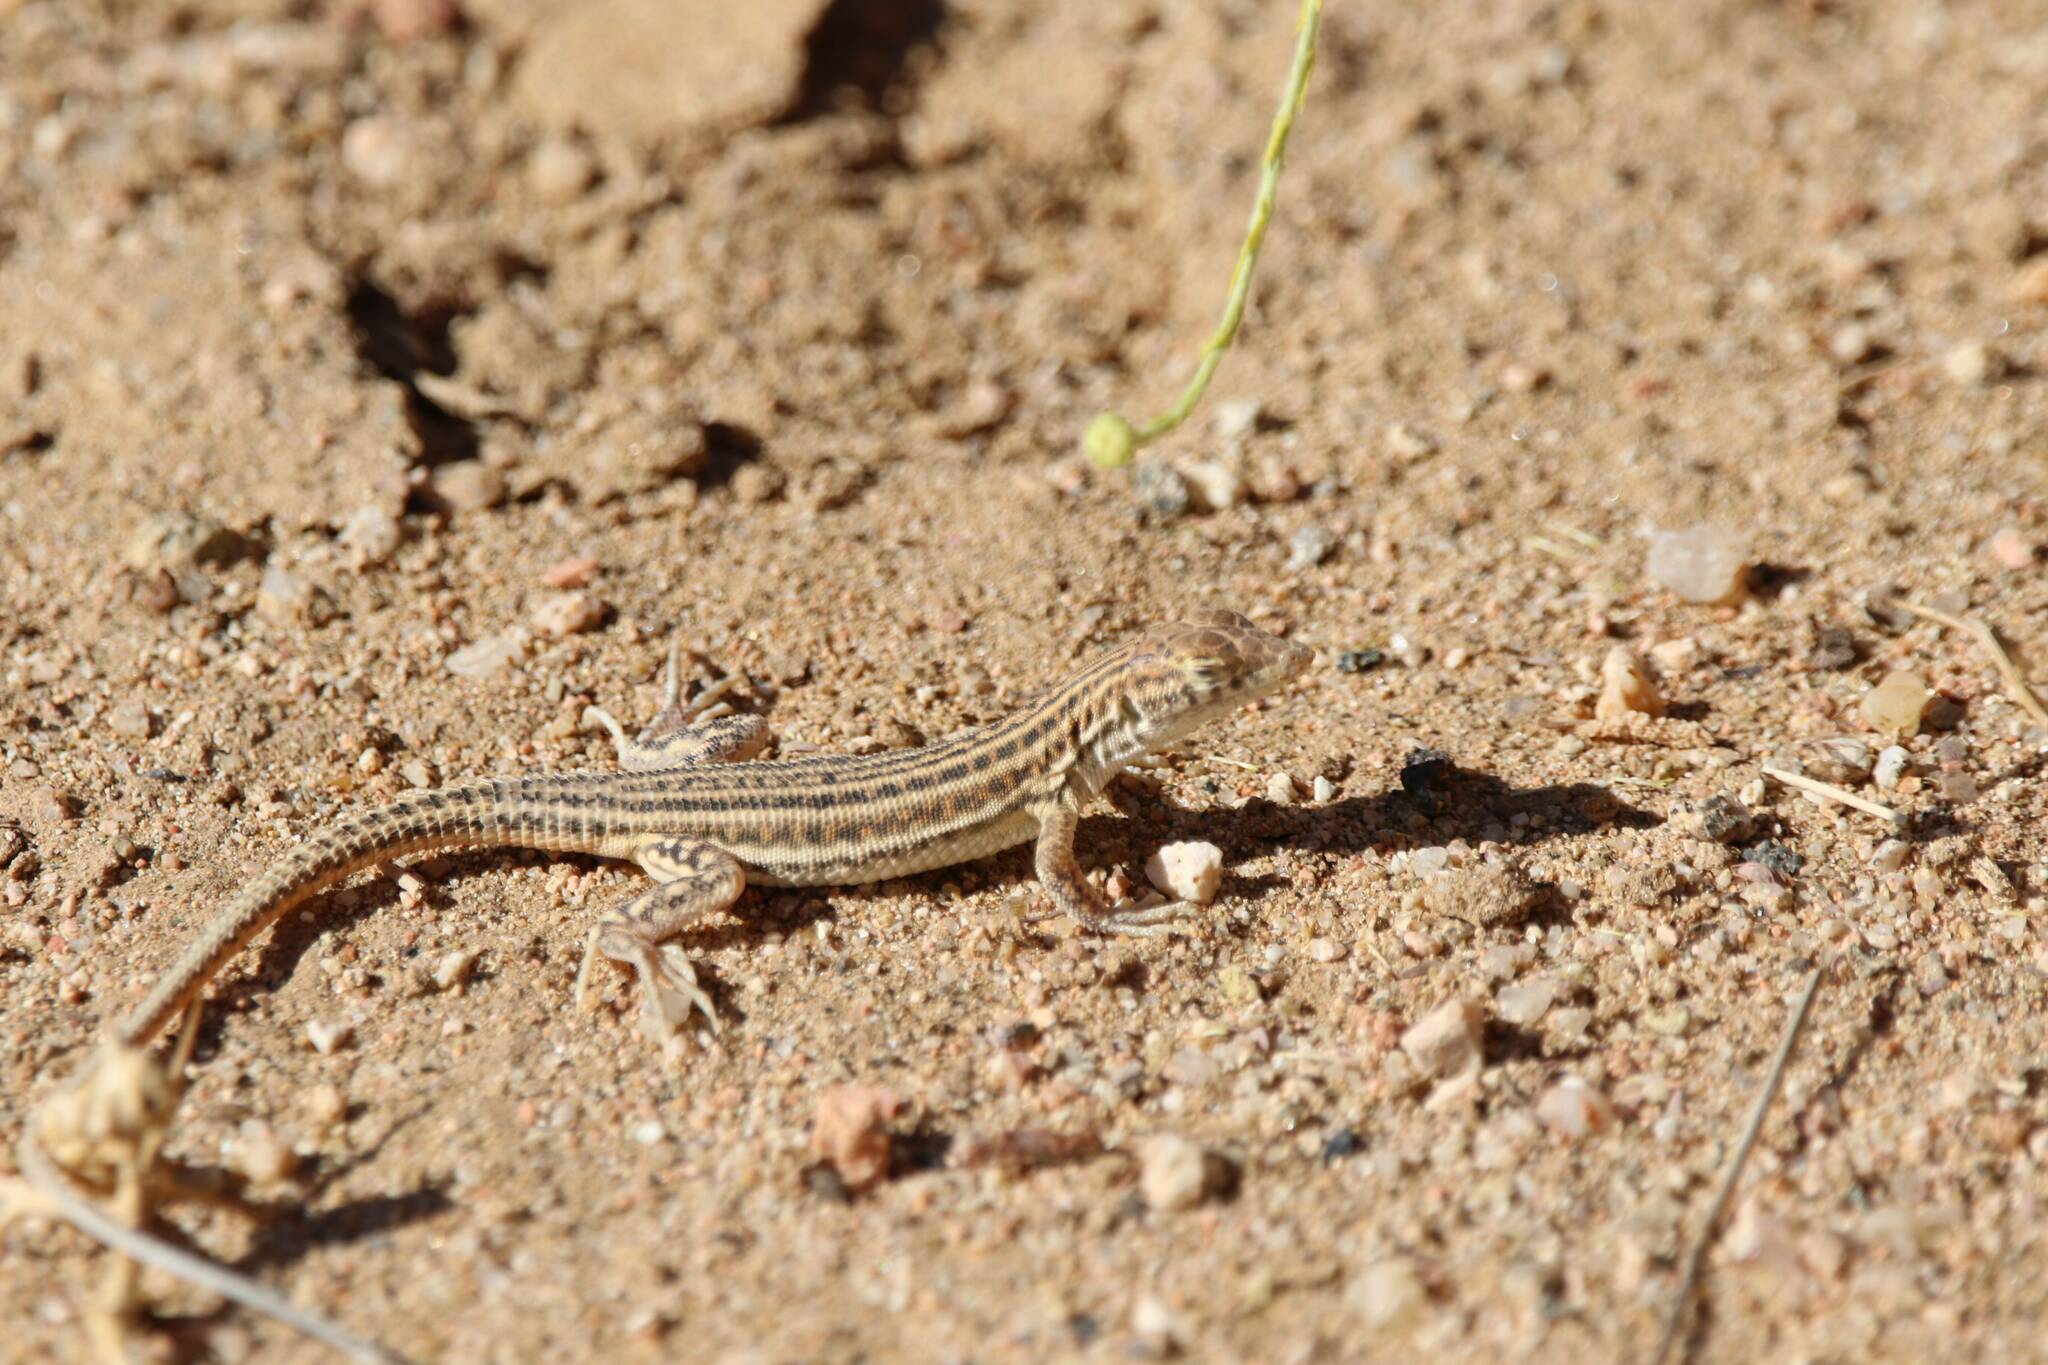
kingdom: Animalia
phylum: Chordata
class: Squamata
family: Lacertidae
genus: Acanthodactylus
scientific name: Acanthodactylus boskianus
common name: Bosc’s fringe-toed lizard
